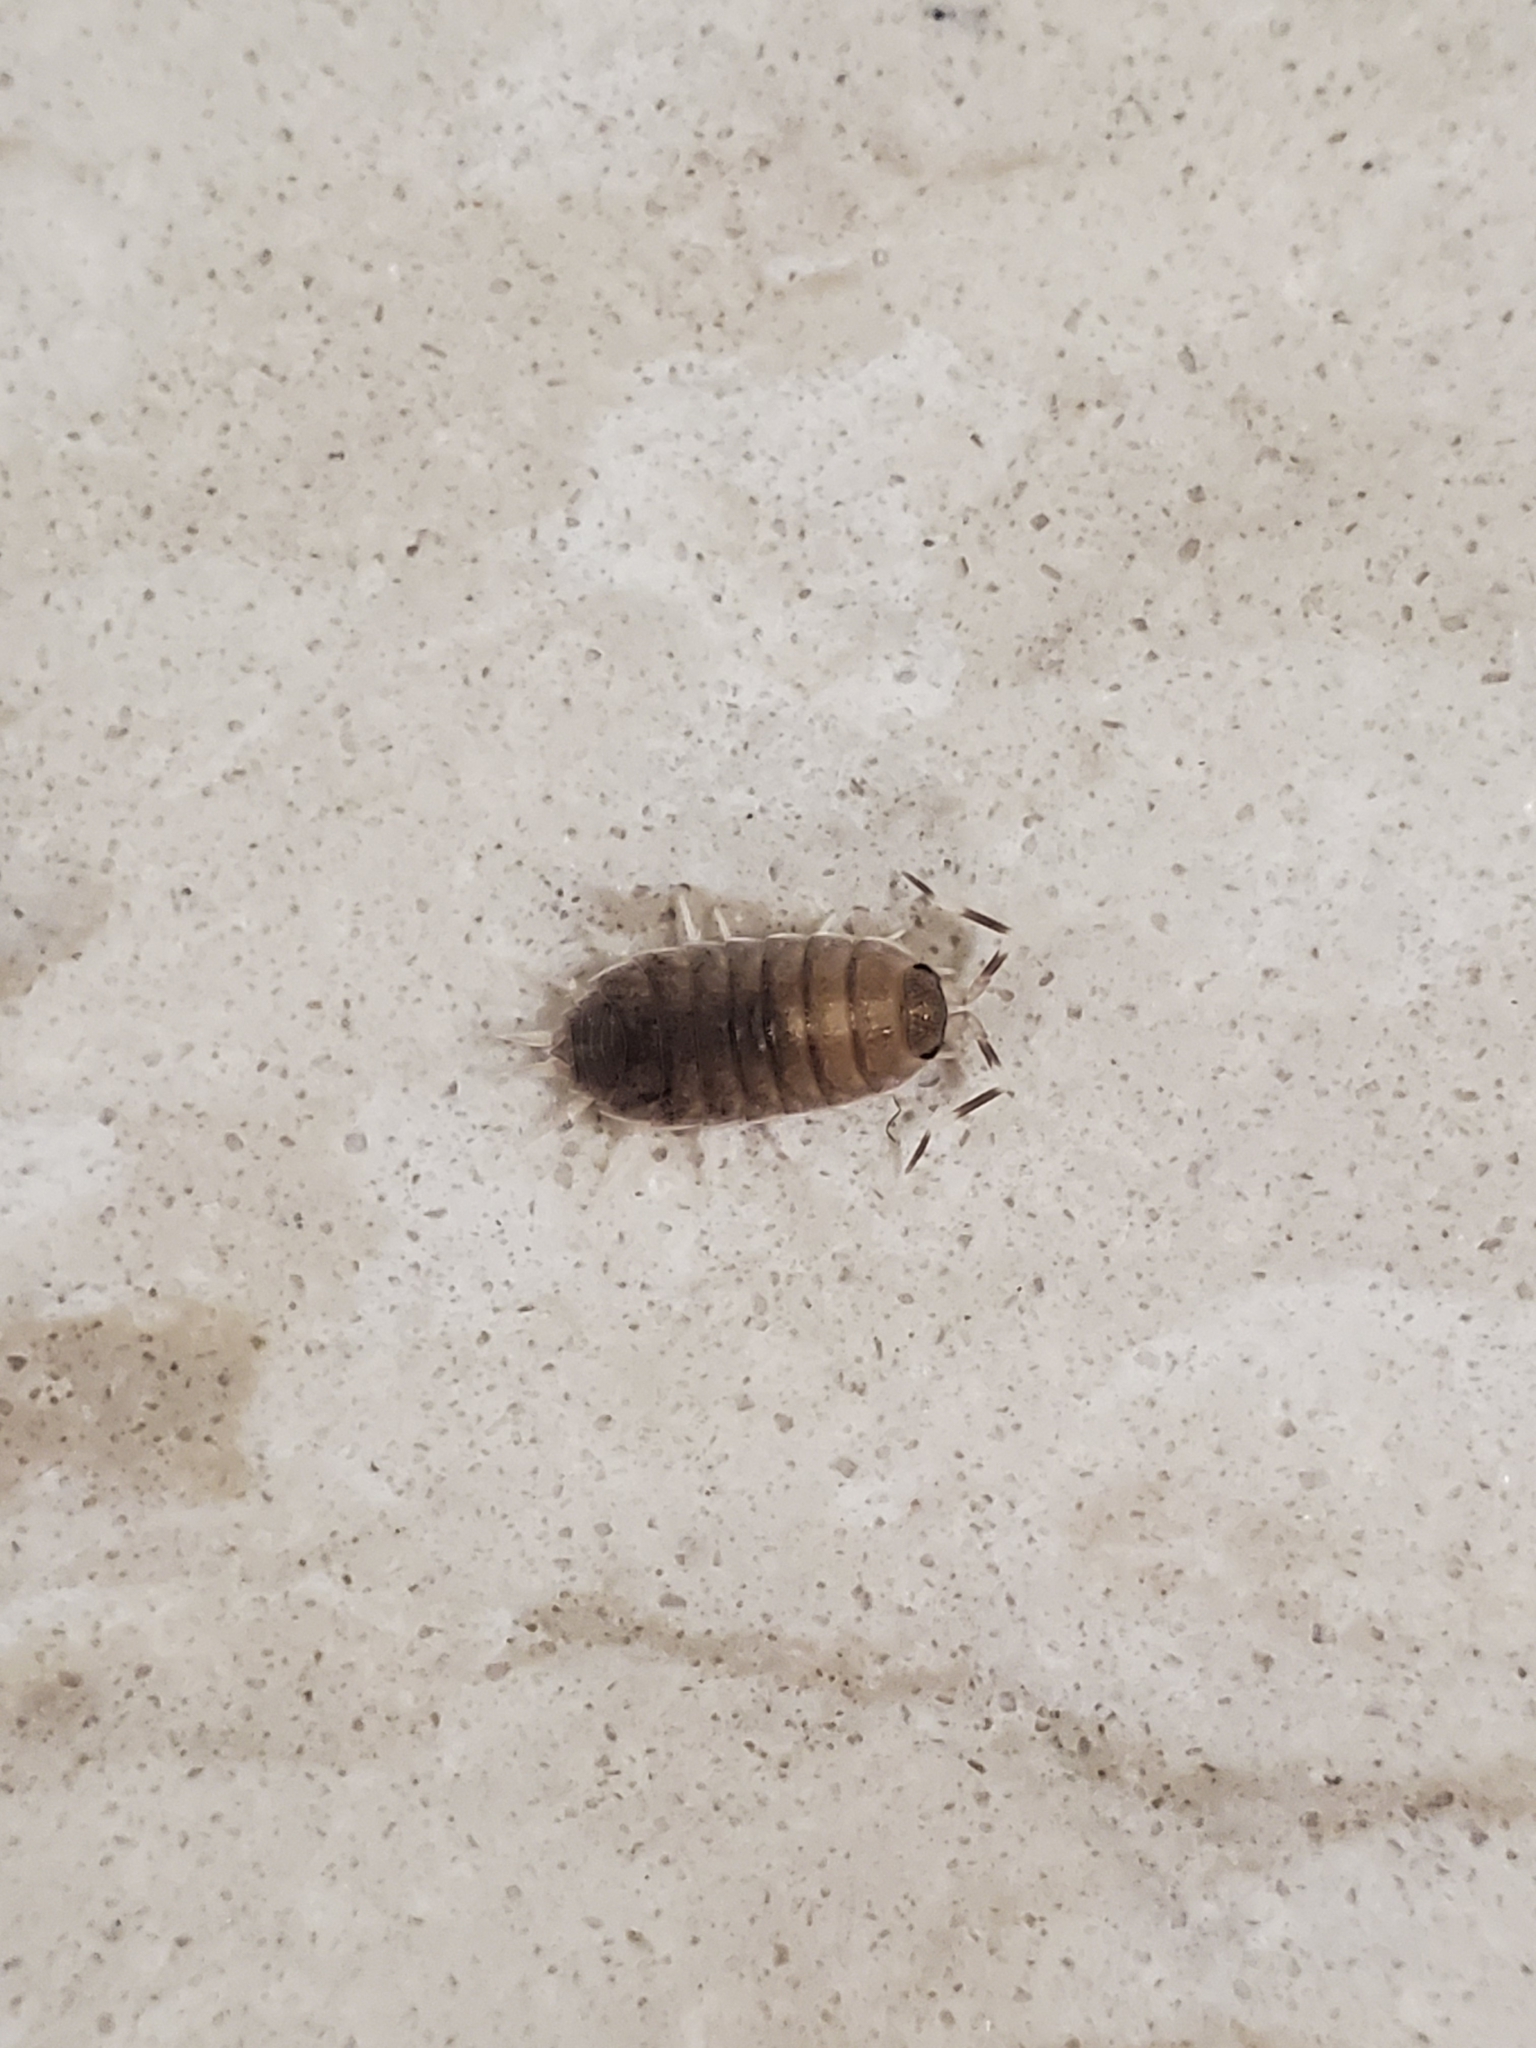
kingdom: Animalia
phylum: Arthropoda
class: Malacostraca
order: Isopoda
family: Armadillidiidae
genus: Armadillidium
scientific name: Armadillidium nasatum
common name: Isopod
